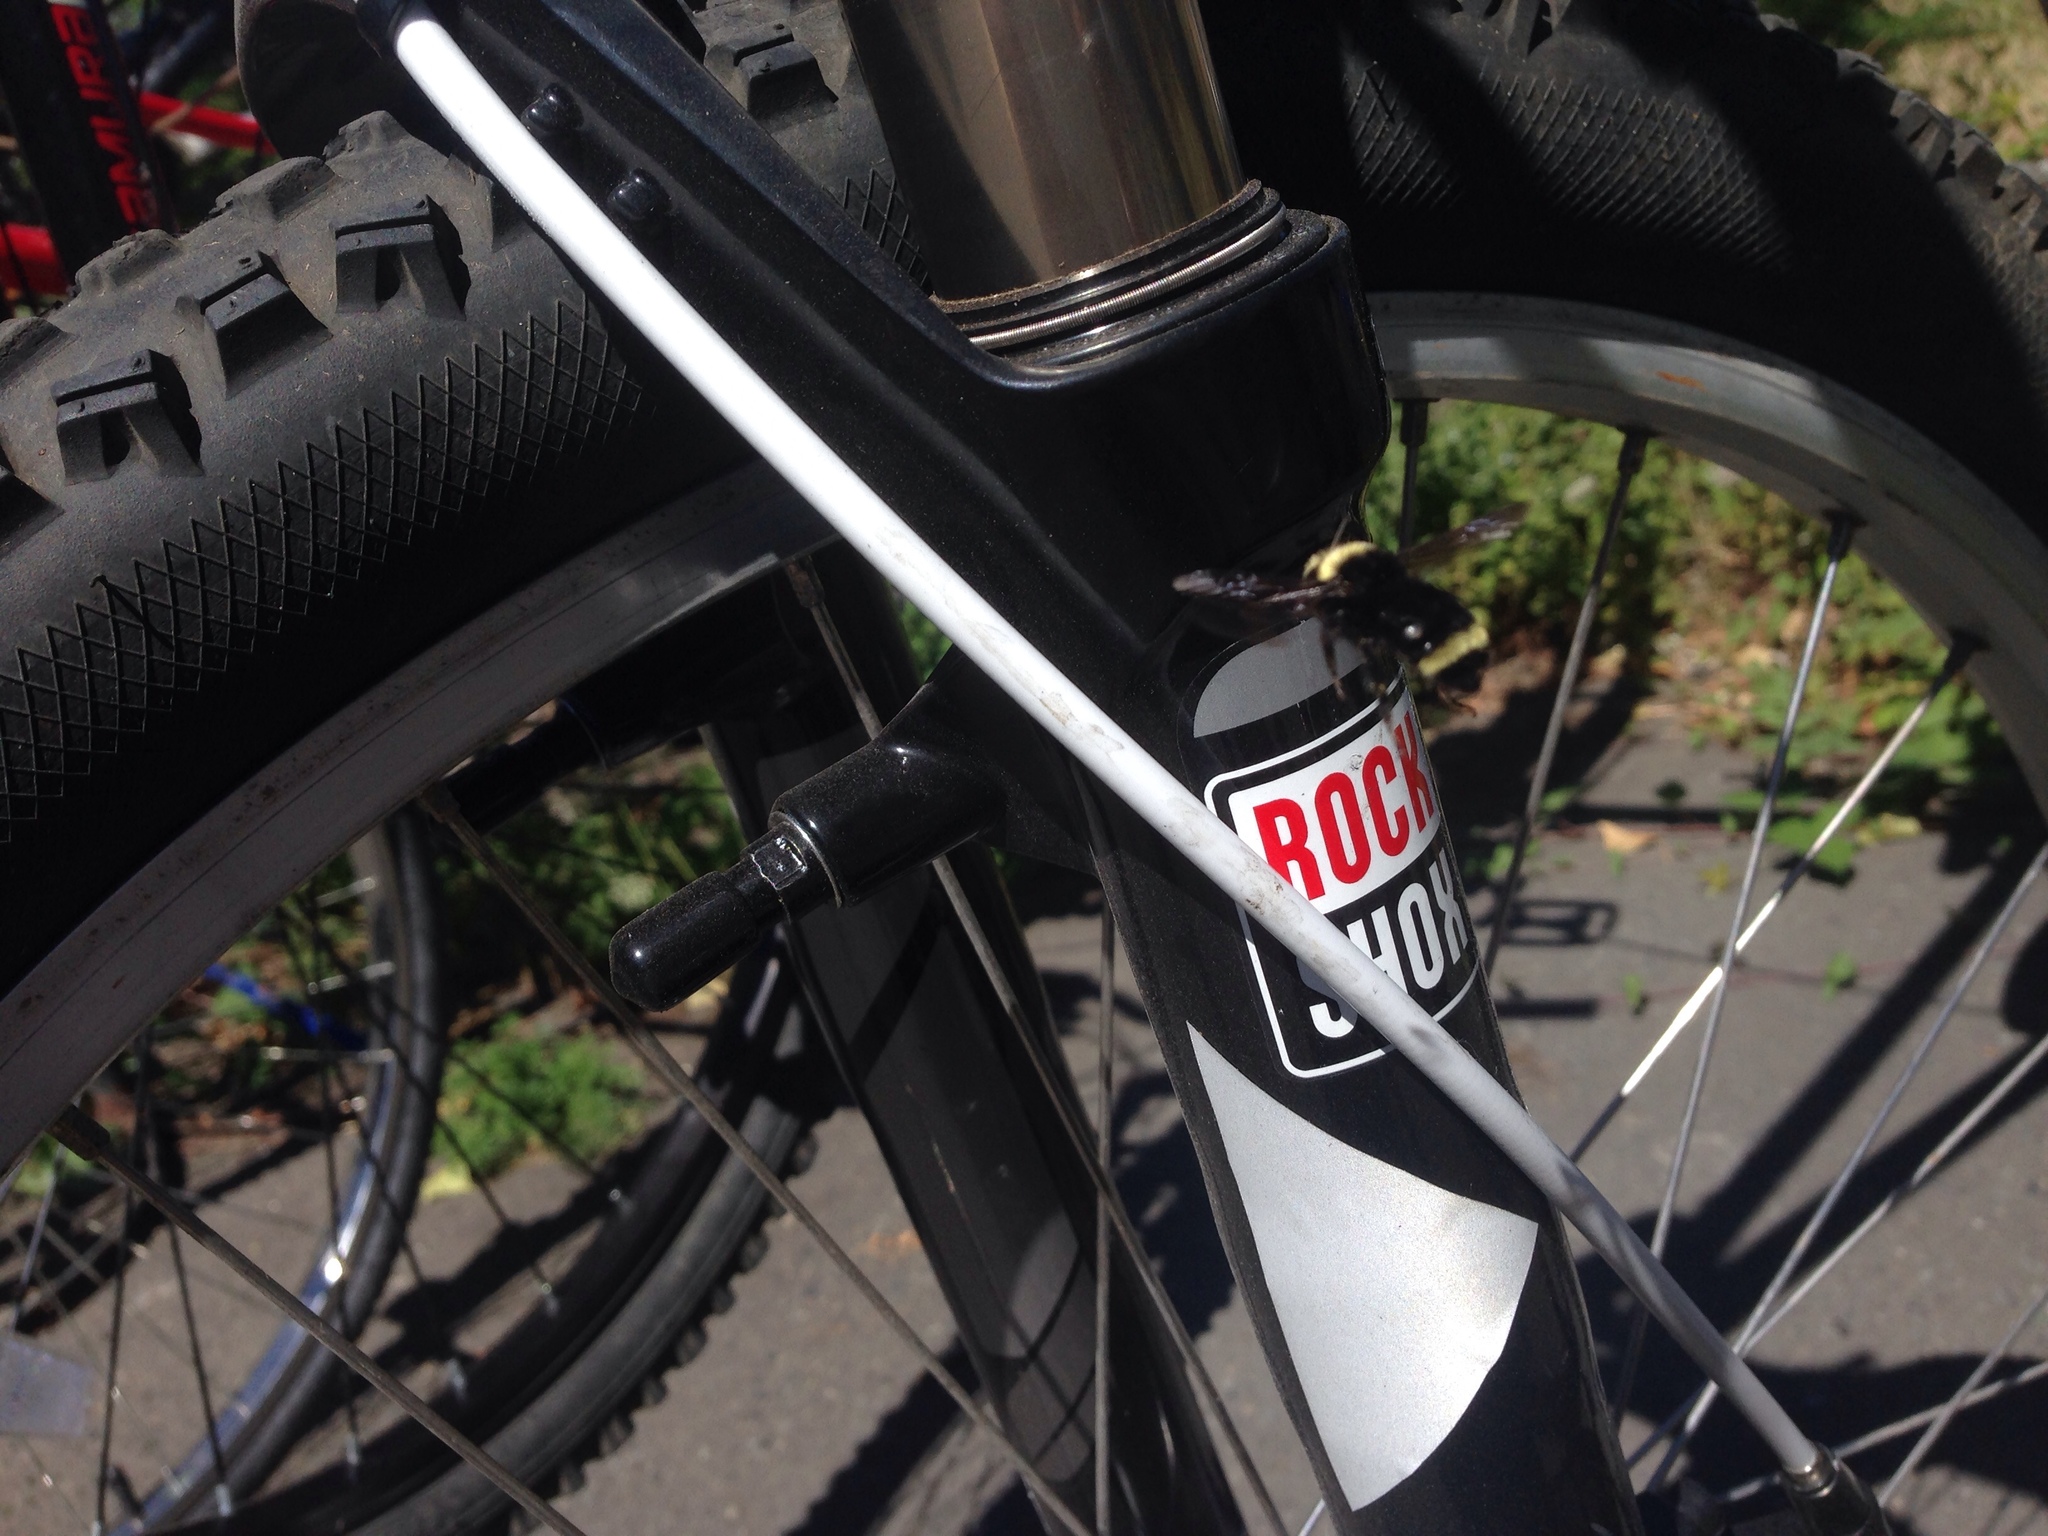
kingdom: Animalia
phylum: Arthropoda
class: Insecta
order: Hymenoptera
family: Apidae
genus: Bombus
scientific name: Bombus vosnesenskii
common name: Vosnesensky bumble bee
